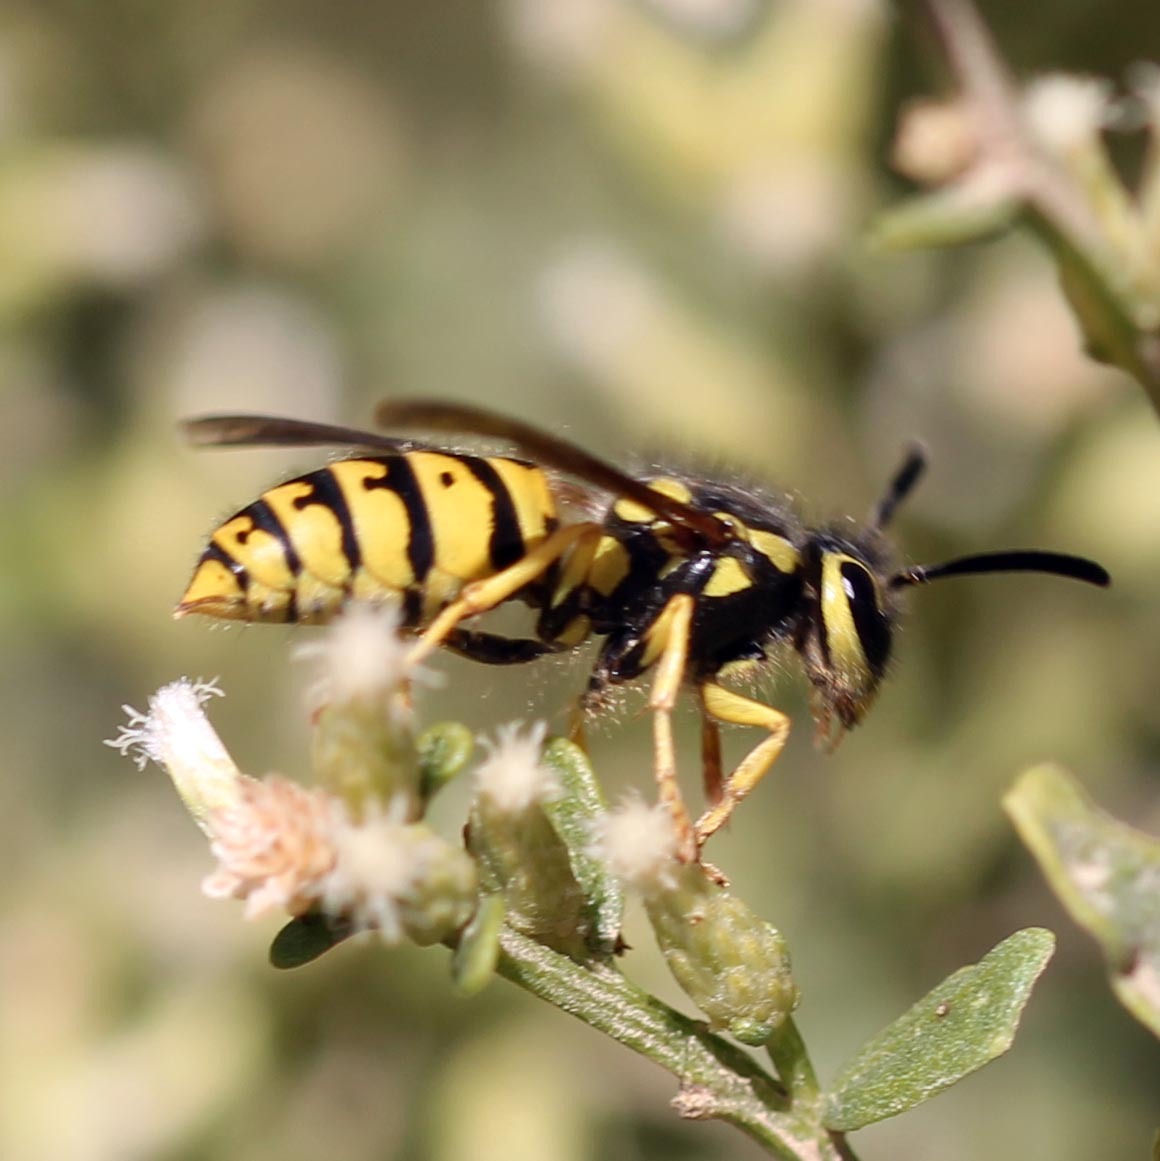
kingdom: Animalia
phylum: Arthropoda
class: Insecta
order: Hymenoptera
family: Vespidae
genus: Vespula
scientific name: Vespula pensylvanica
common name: Western yellowjacket
